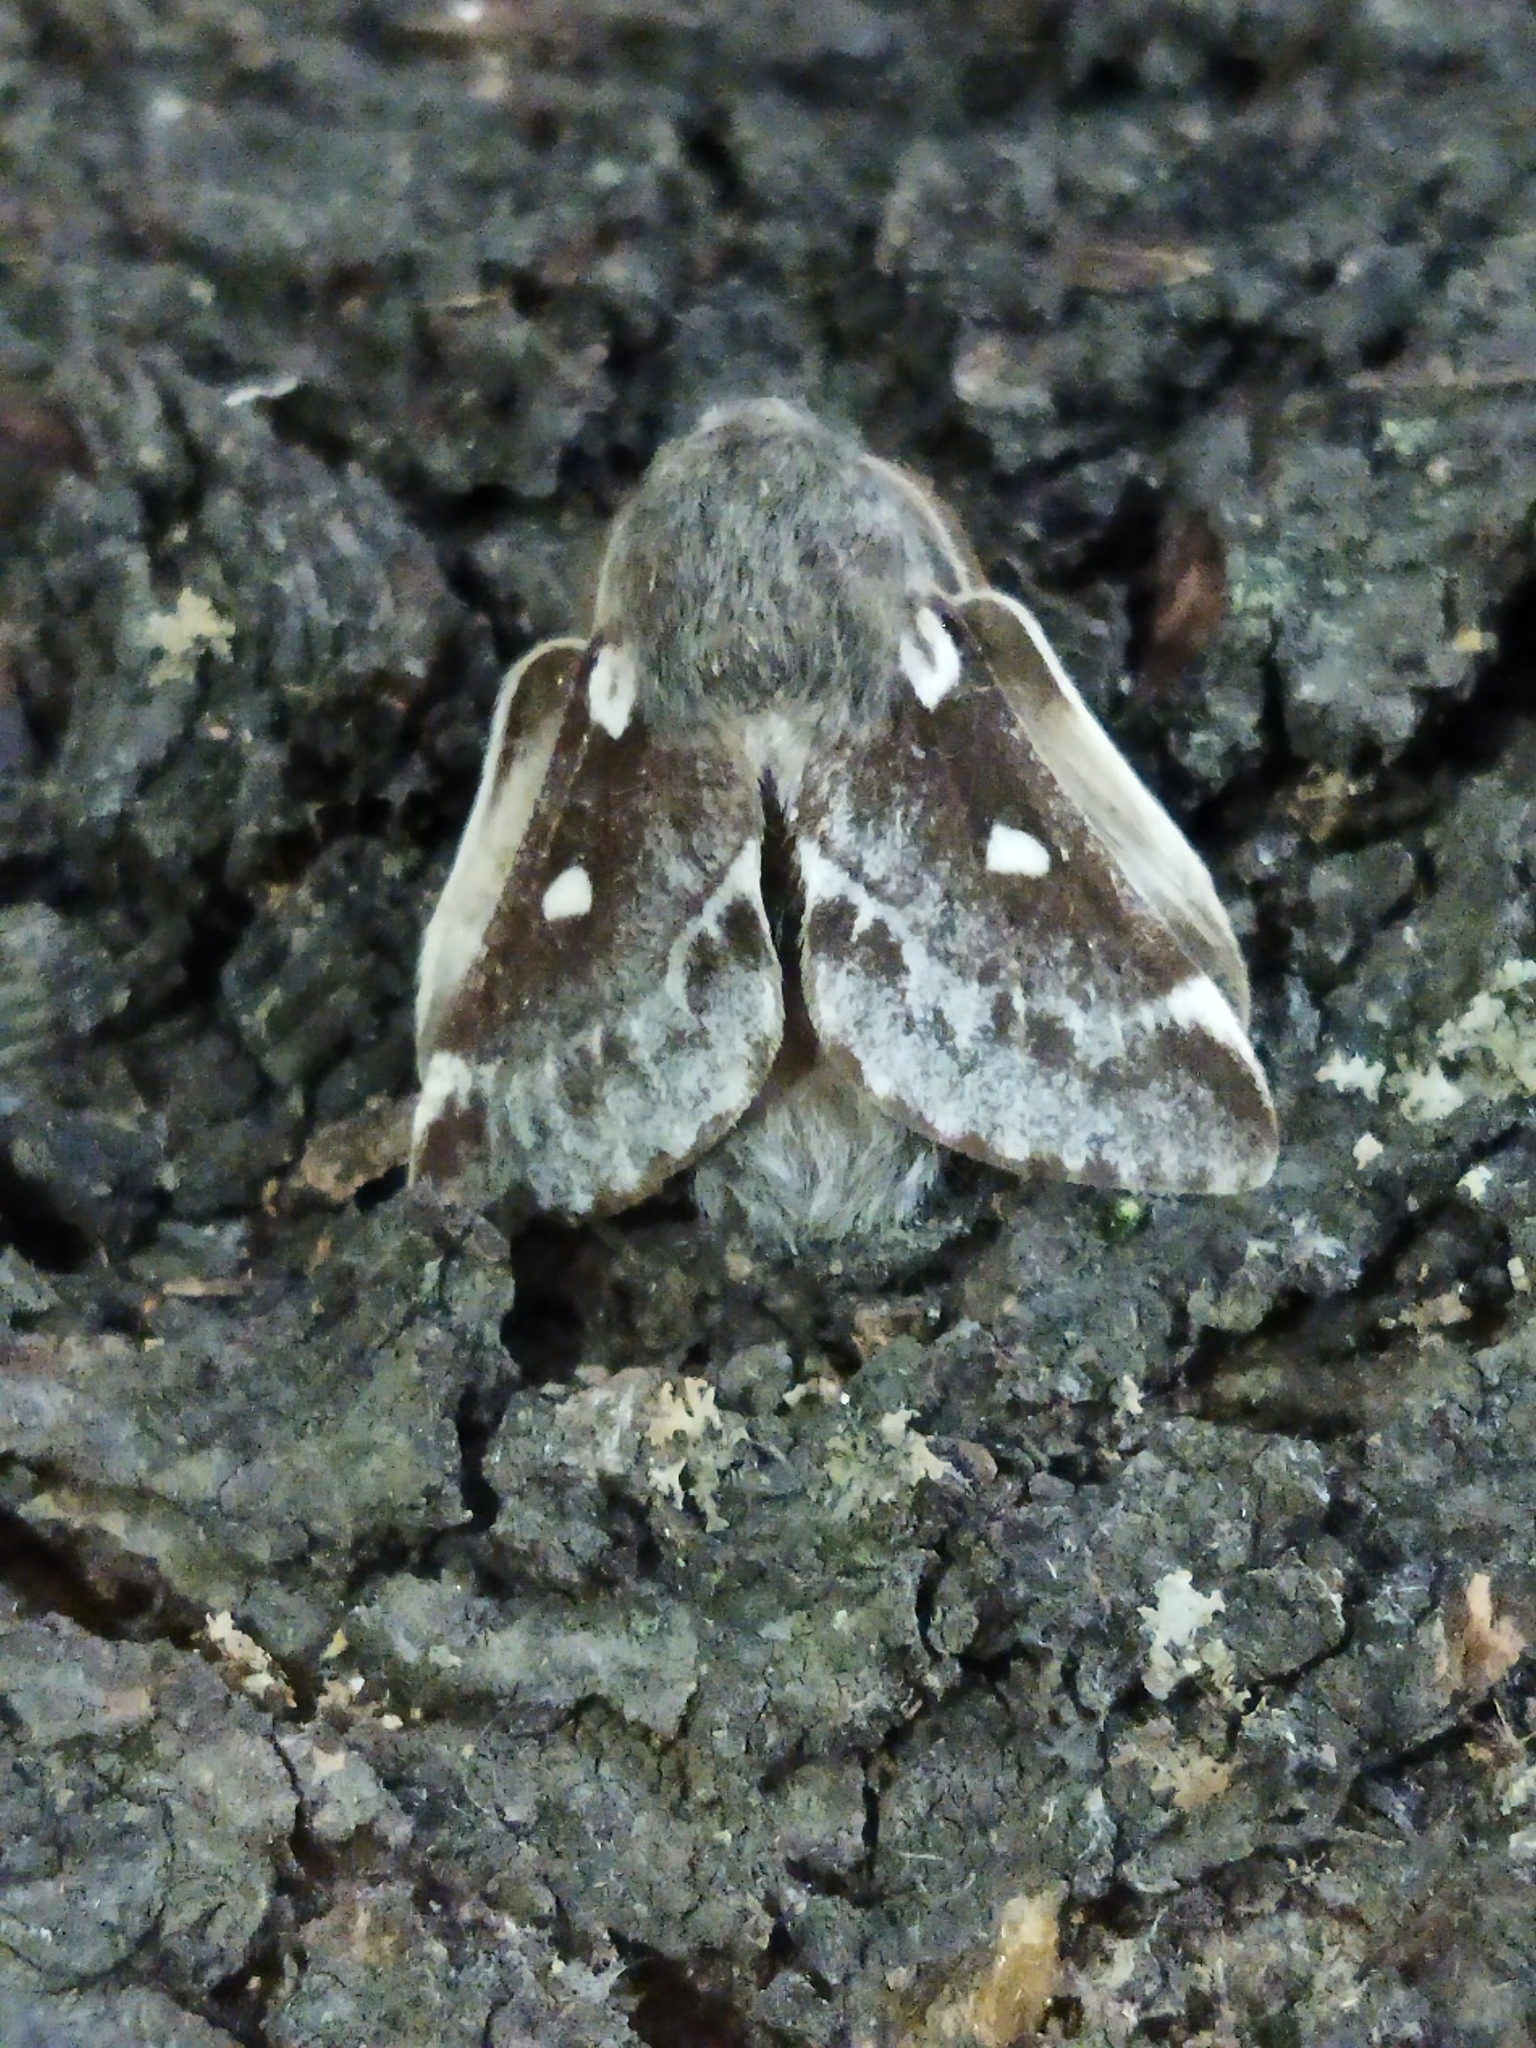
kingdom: Animalia
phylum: Arthropoda
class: Insecta
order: Lepidoptera
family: Lasiocampidae
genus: Eriogaster
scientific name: Eriogaster lanestris
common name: Small eggar
